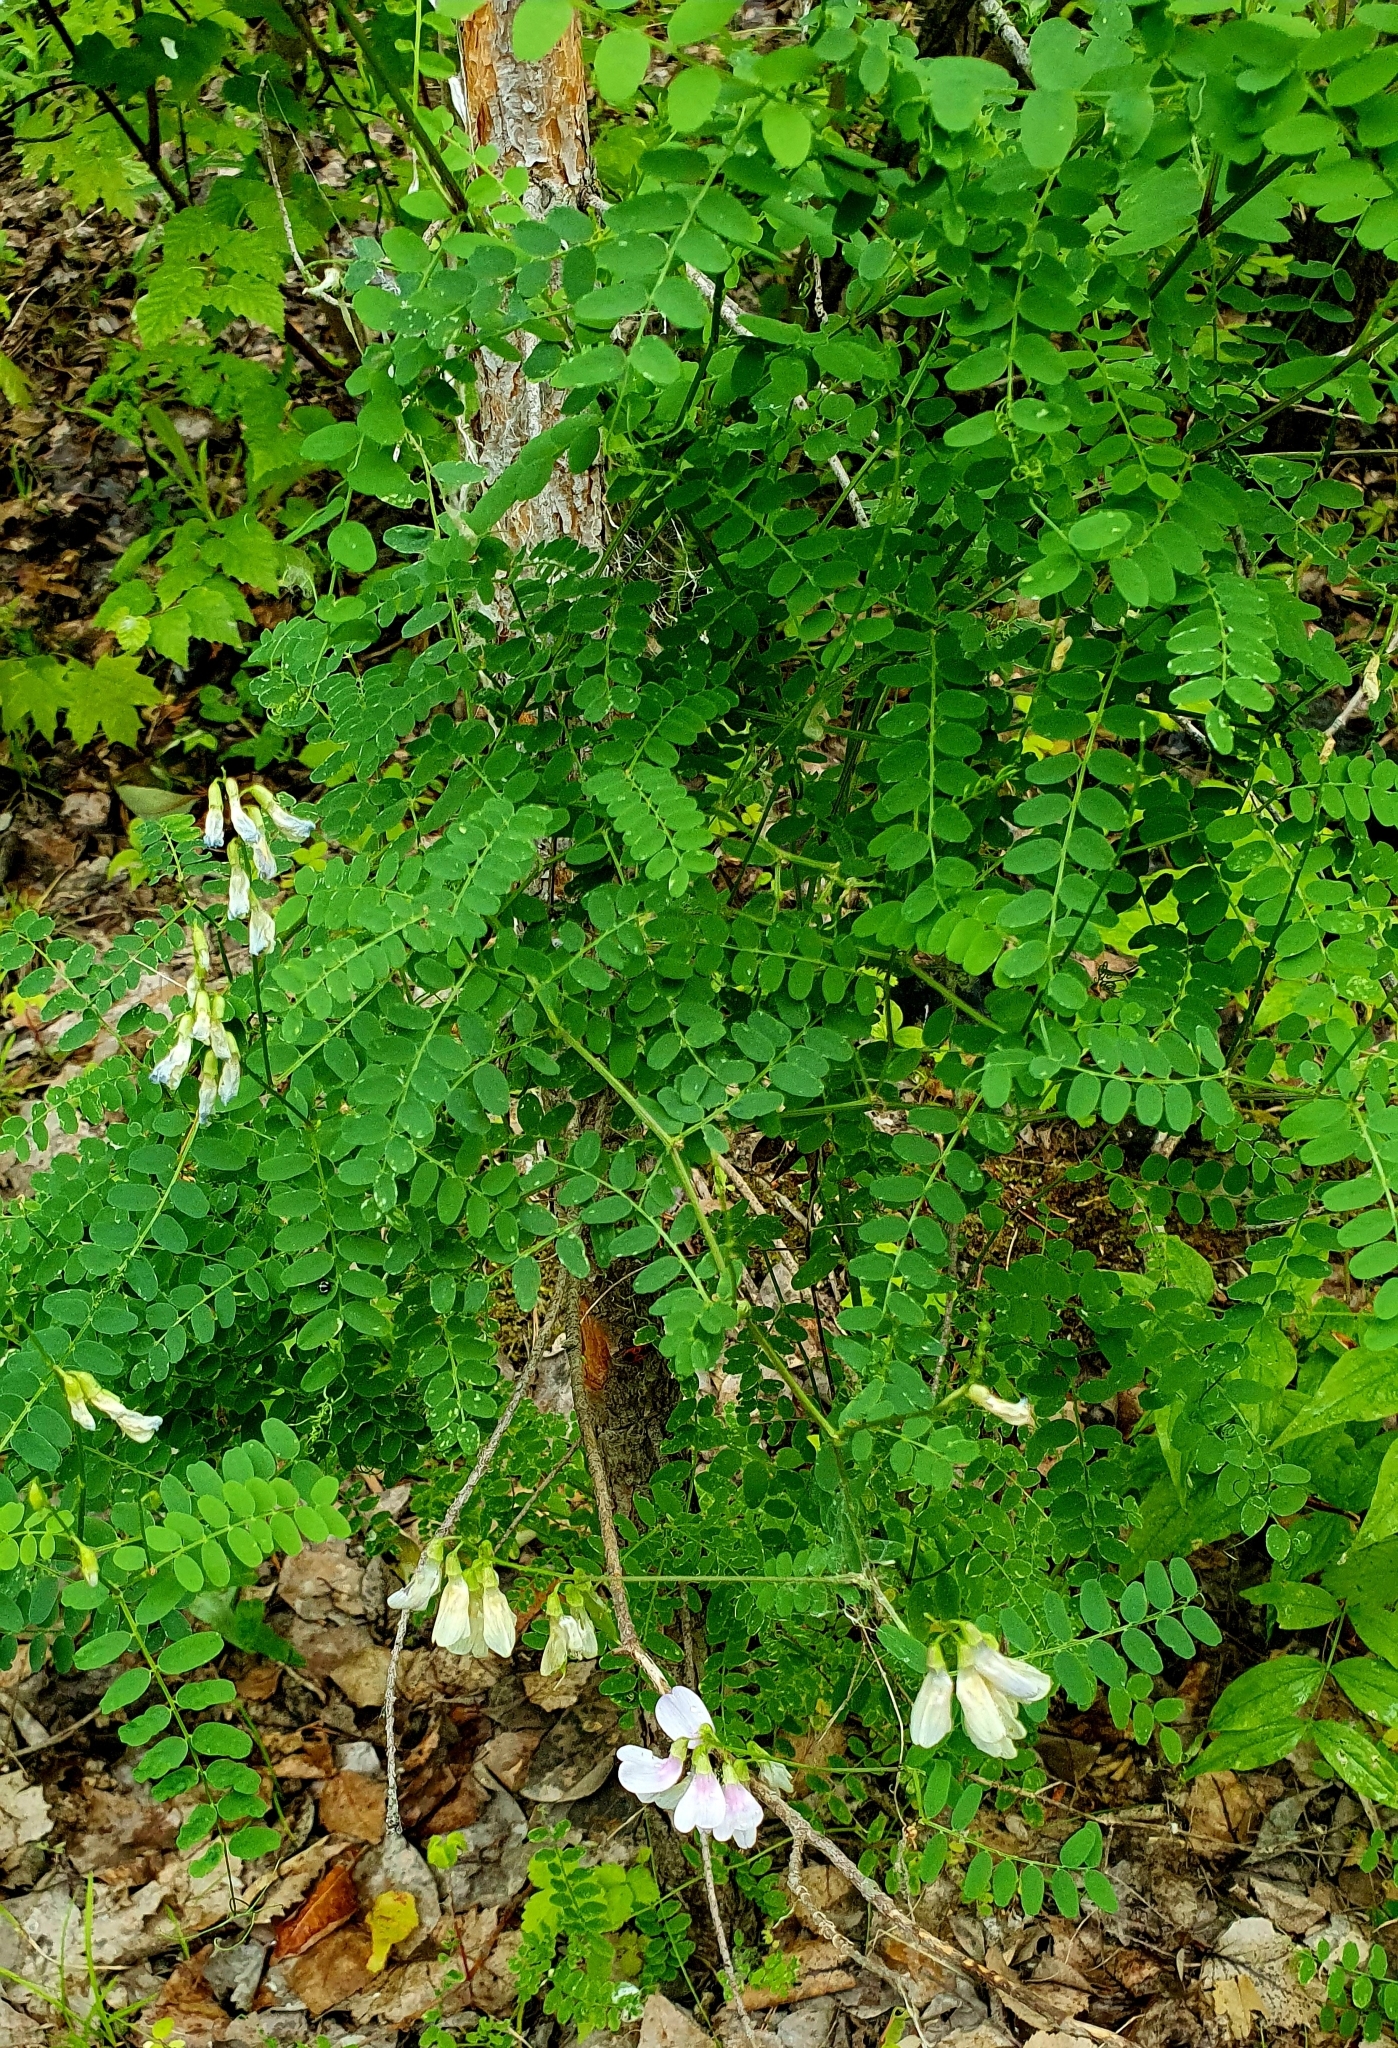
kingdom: Plantae
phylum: Tracheophyta
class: Magnoliopsida
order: Fabales
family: Fabaceae
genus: Vicia
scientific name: Vicia sylvatica
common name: Wood vetch
